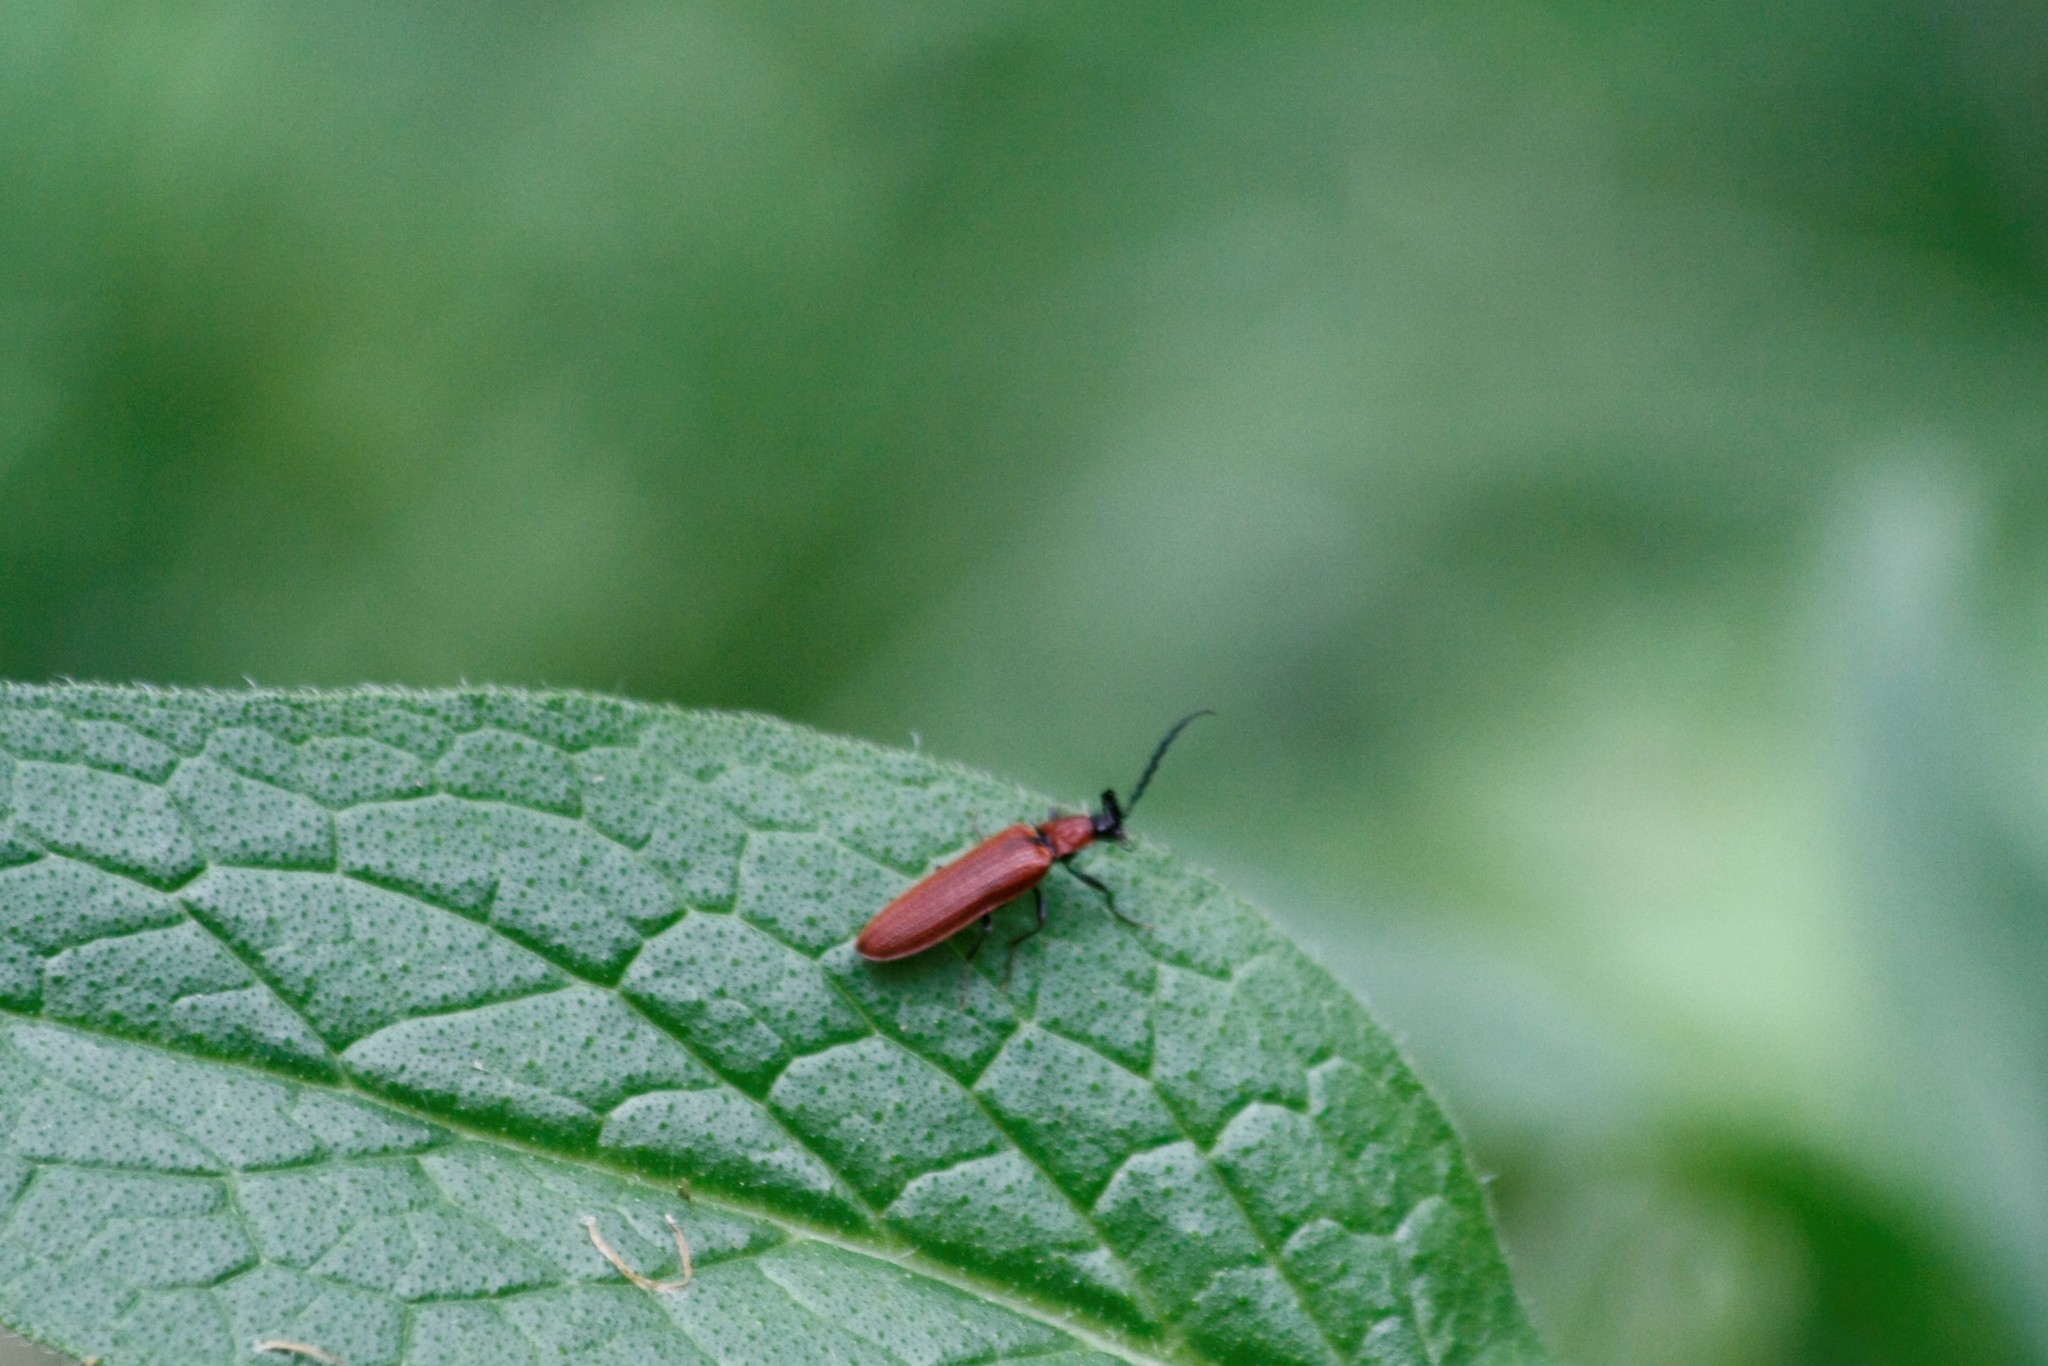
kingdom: Animalia
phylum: Arthropoda
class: Insecta
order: Coleoptera
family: Elateridae
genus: Denticollis
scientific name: Denticollis rubens
